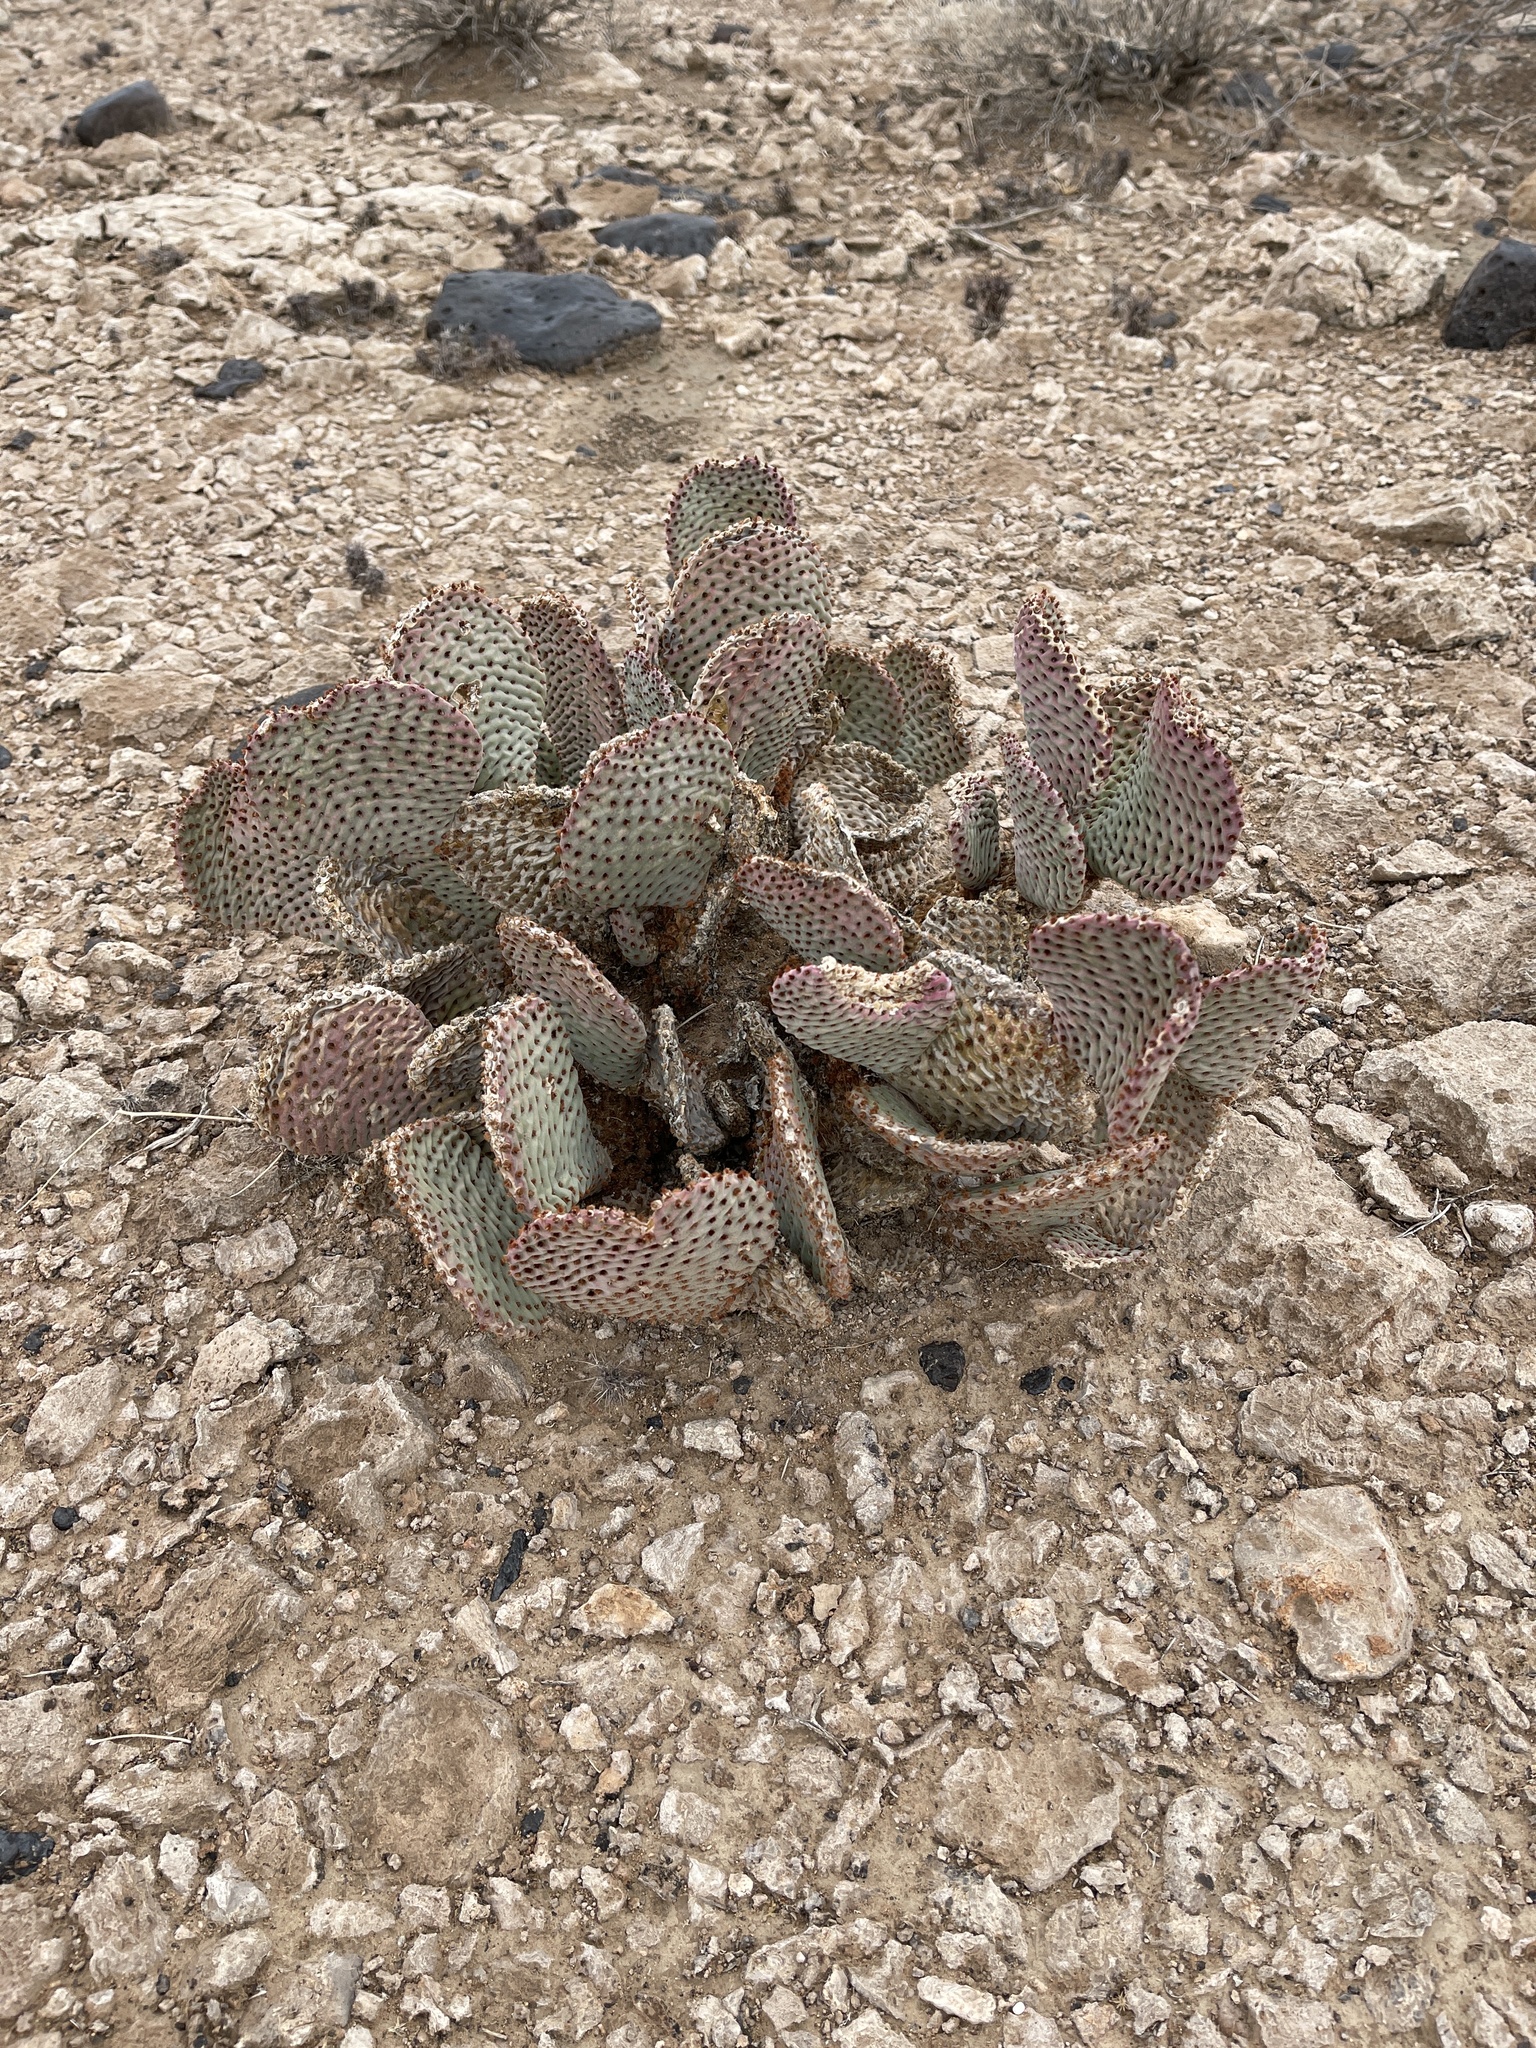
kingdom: Plantae
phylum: Tracheophyta
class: Magnoliopsida
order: Caryophyllales
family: Cactaceae
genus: Opuntia
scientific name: Opuntia basilaris
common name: Beavertail prickly-pear
